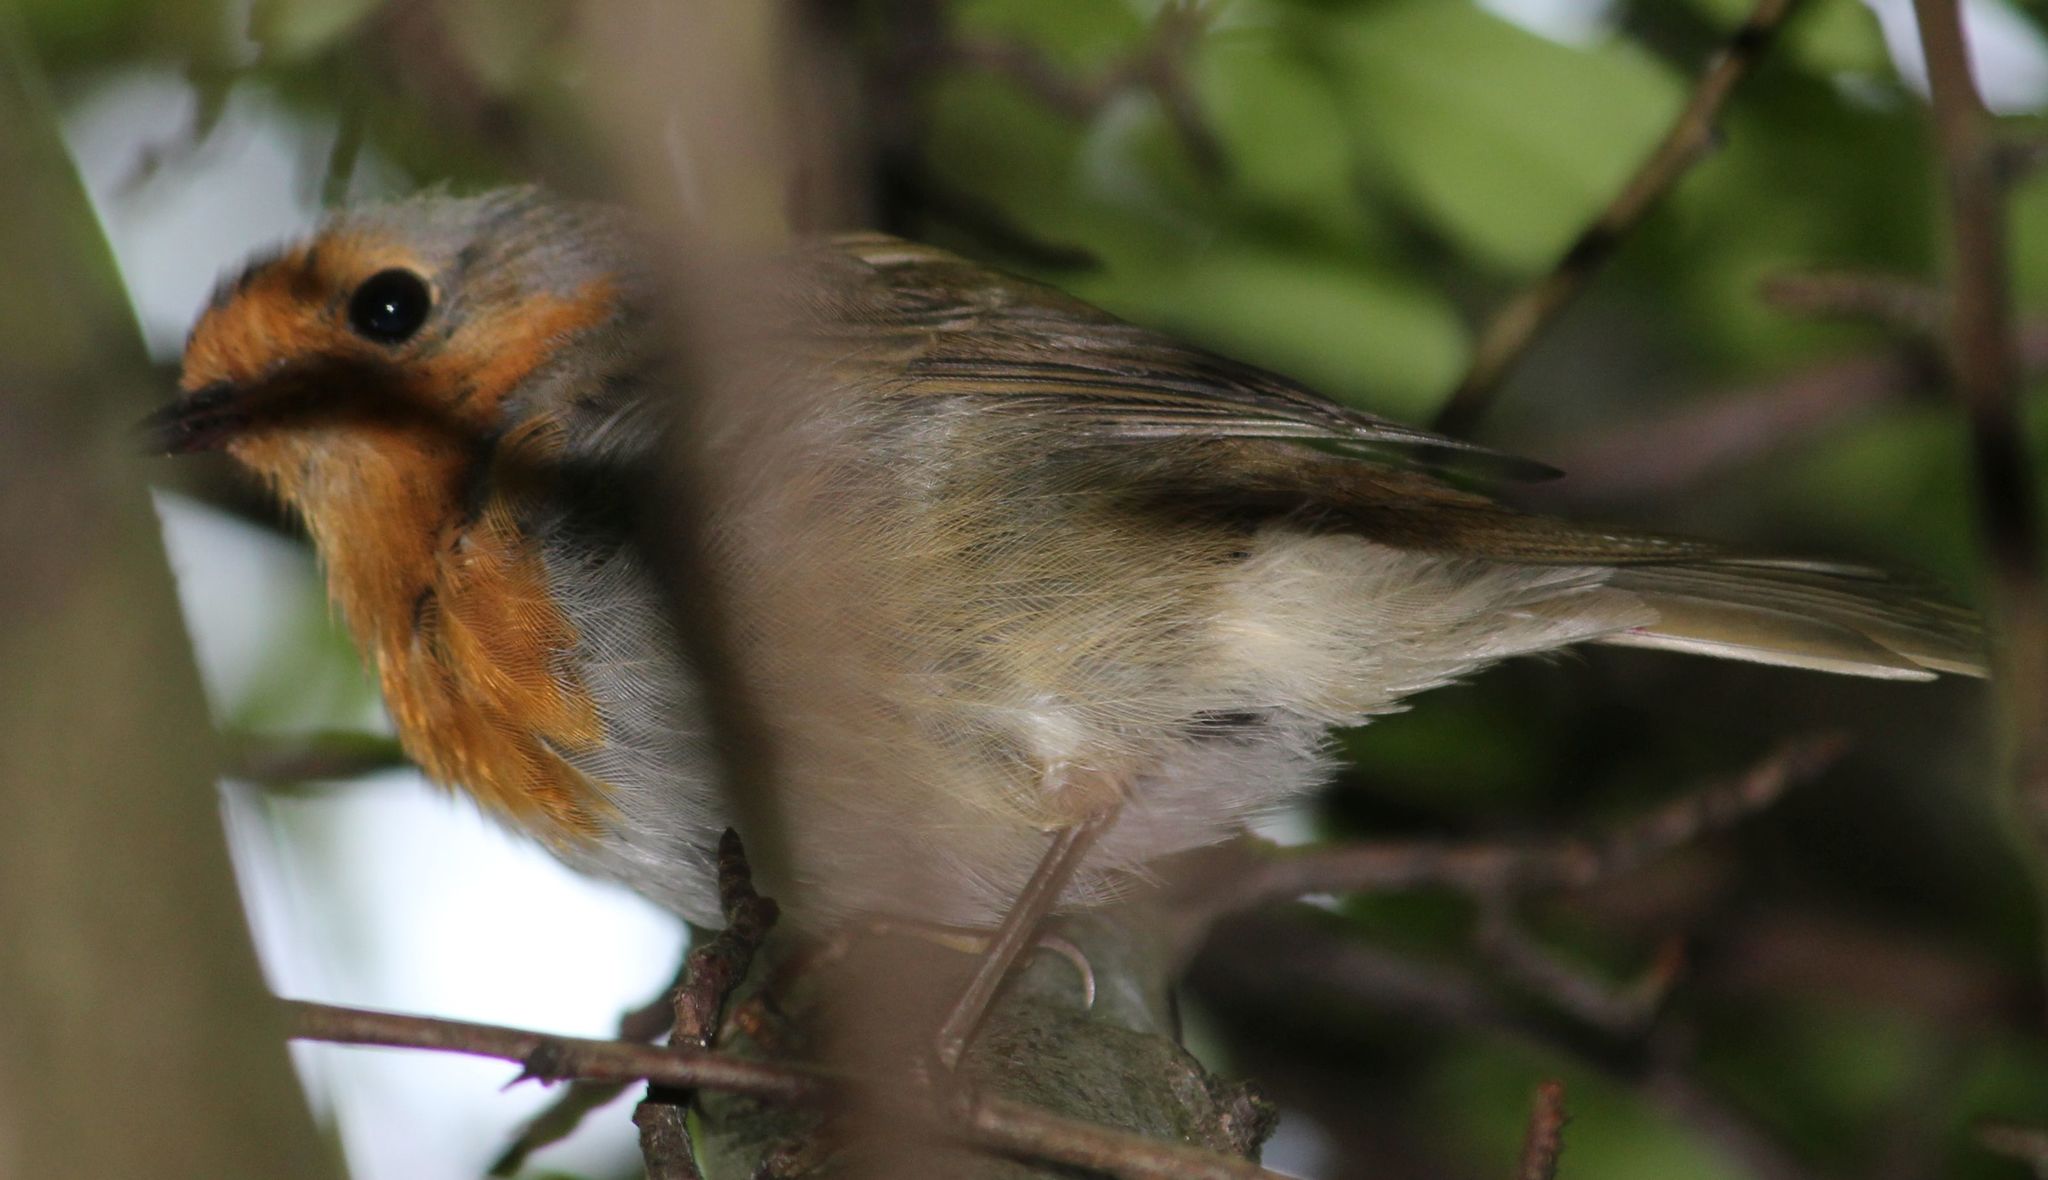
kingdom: Animalia
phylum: Chordata
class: Aves
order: Passeriformes
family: Muscicapidae
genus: Erithacus
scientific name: Erithacus rubecula
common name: European robin
